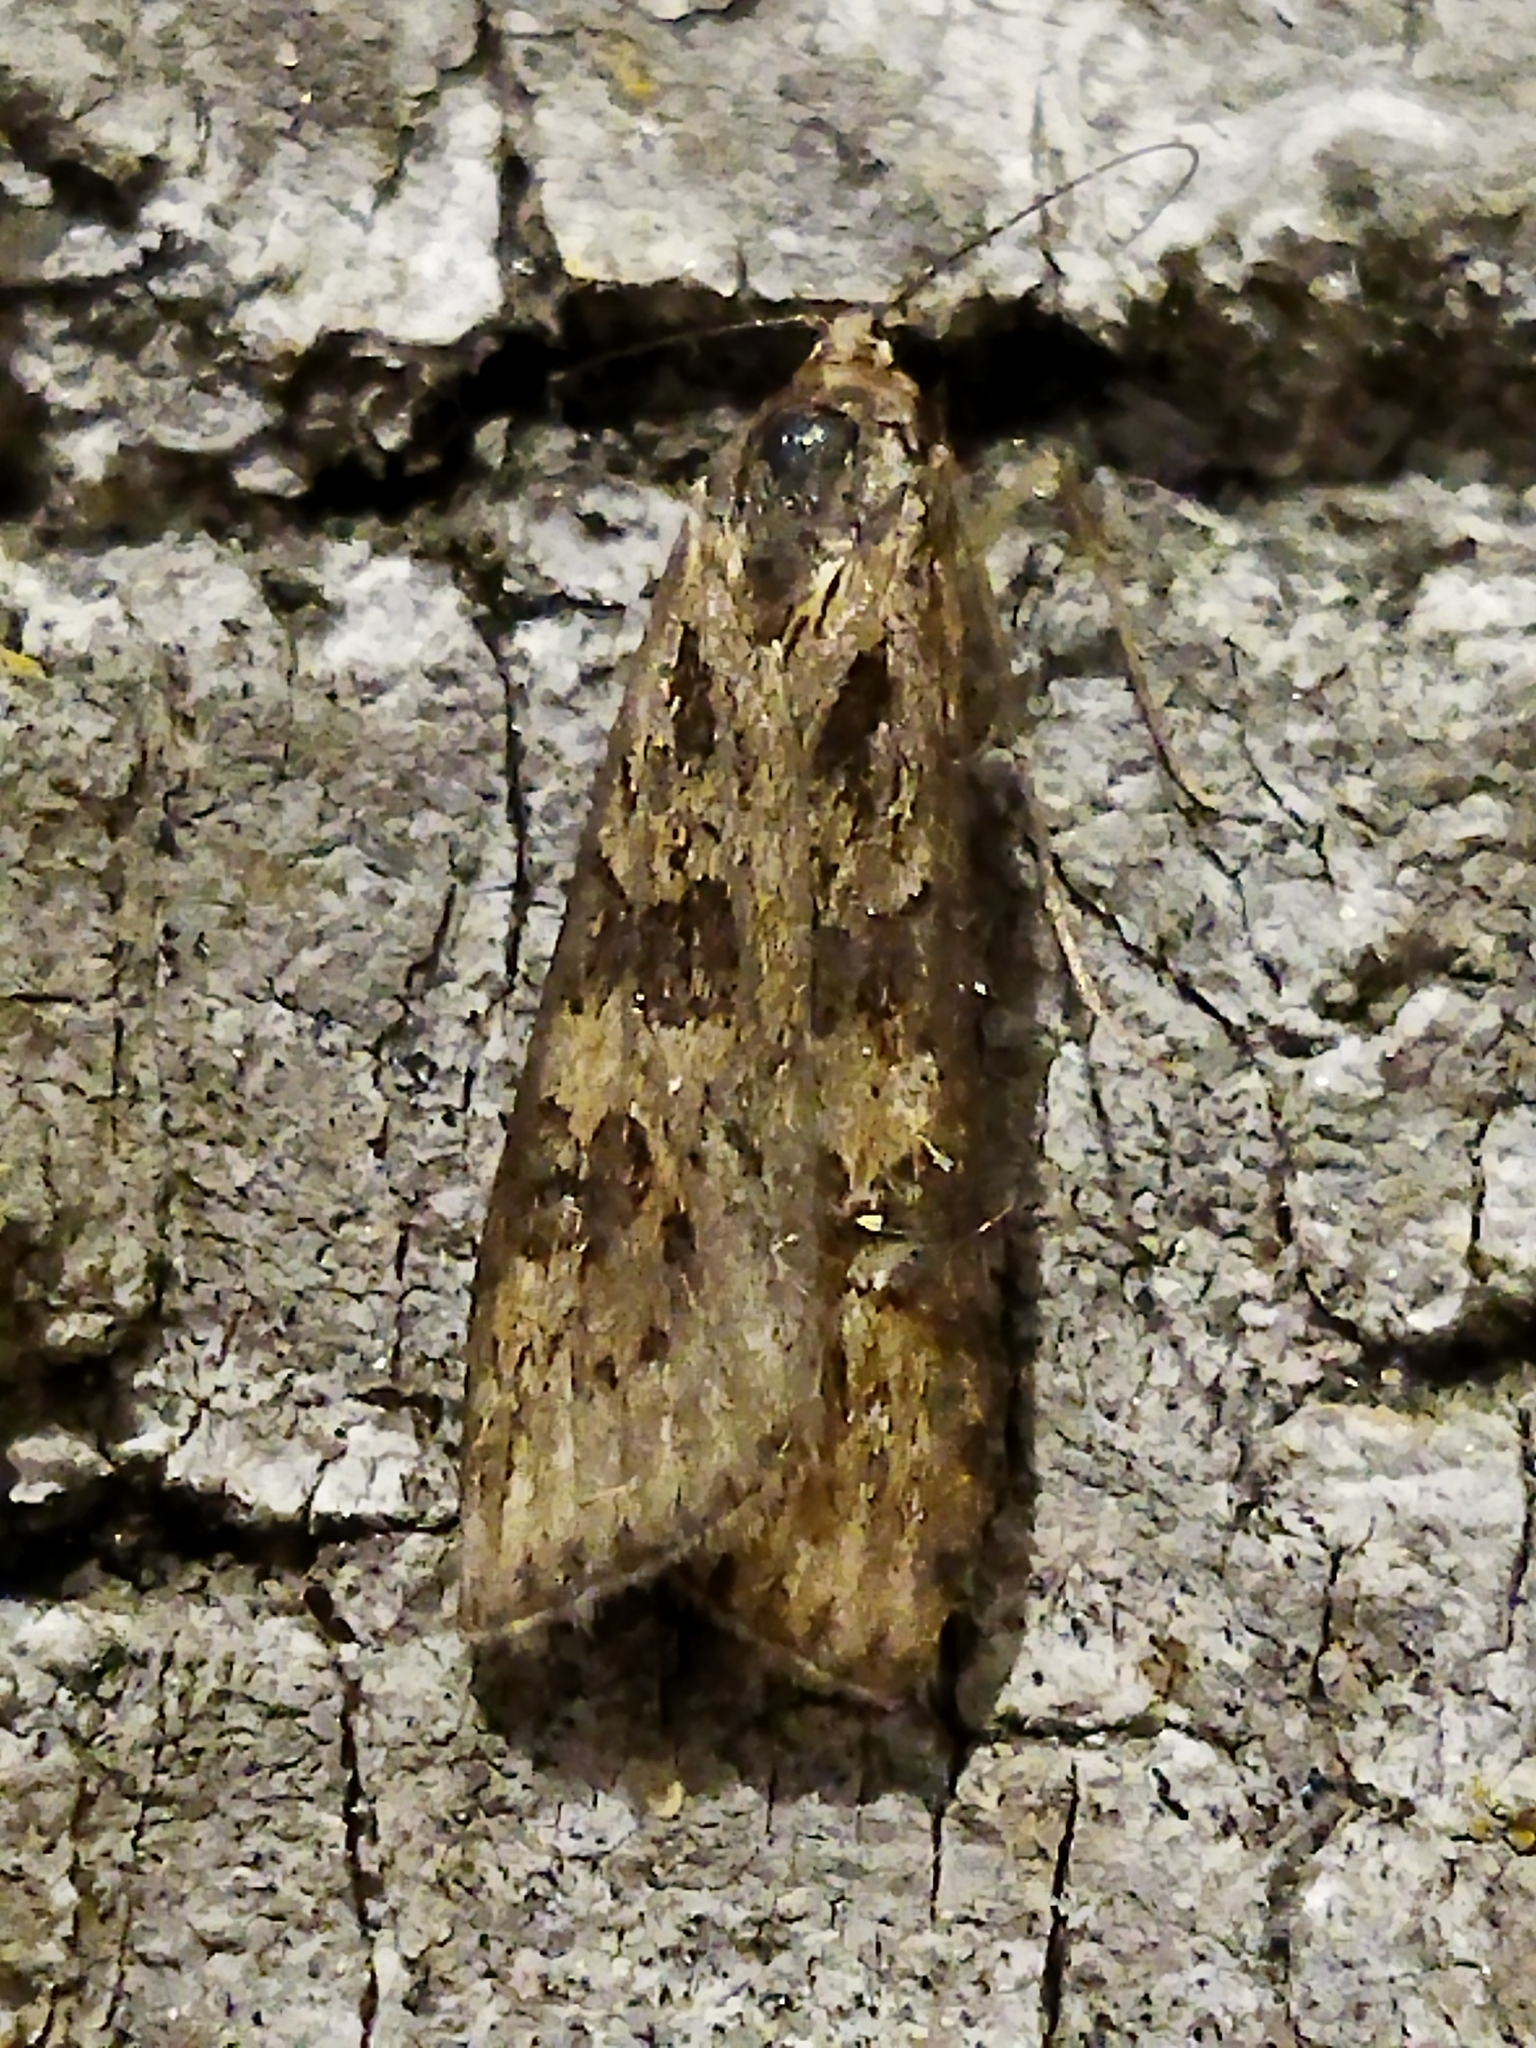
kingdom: Animalia
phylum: Arthropoda
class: Insecta
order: Lepidoptera
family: Crambidae
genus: Nomophila
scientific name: Nomophila noctuella
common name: Rush veneer
